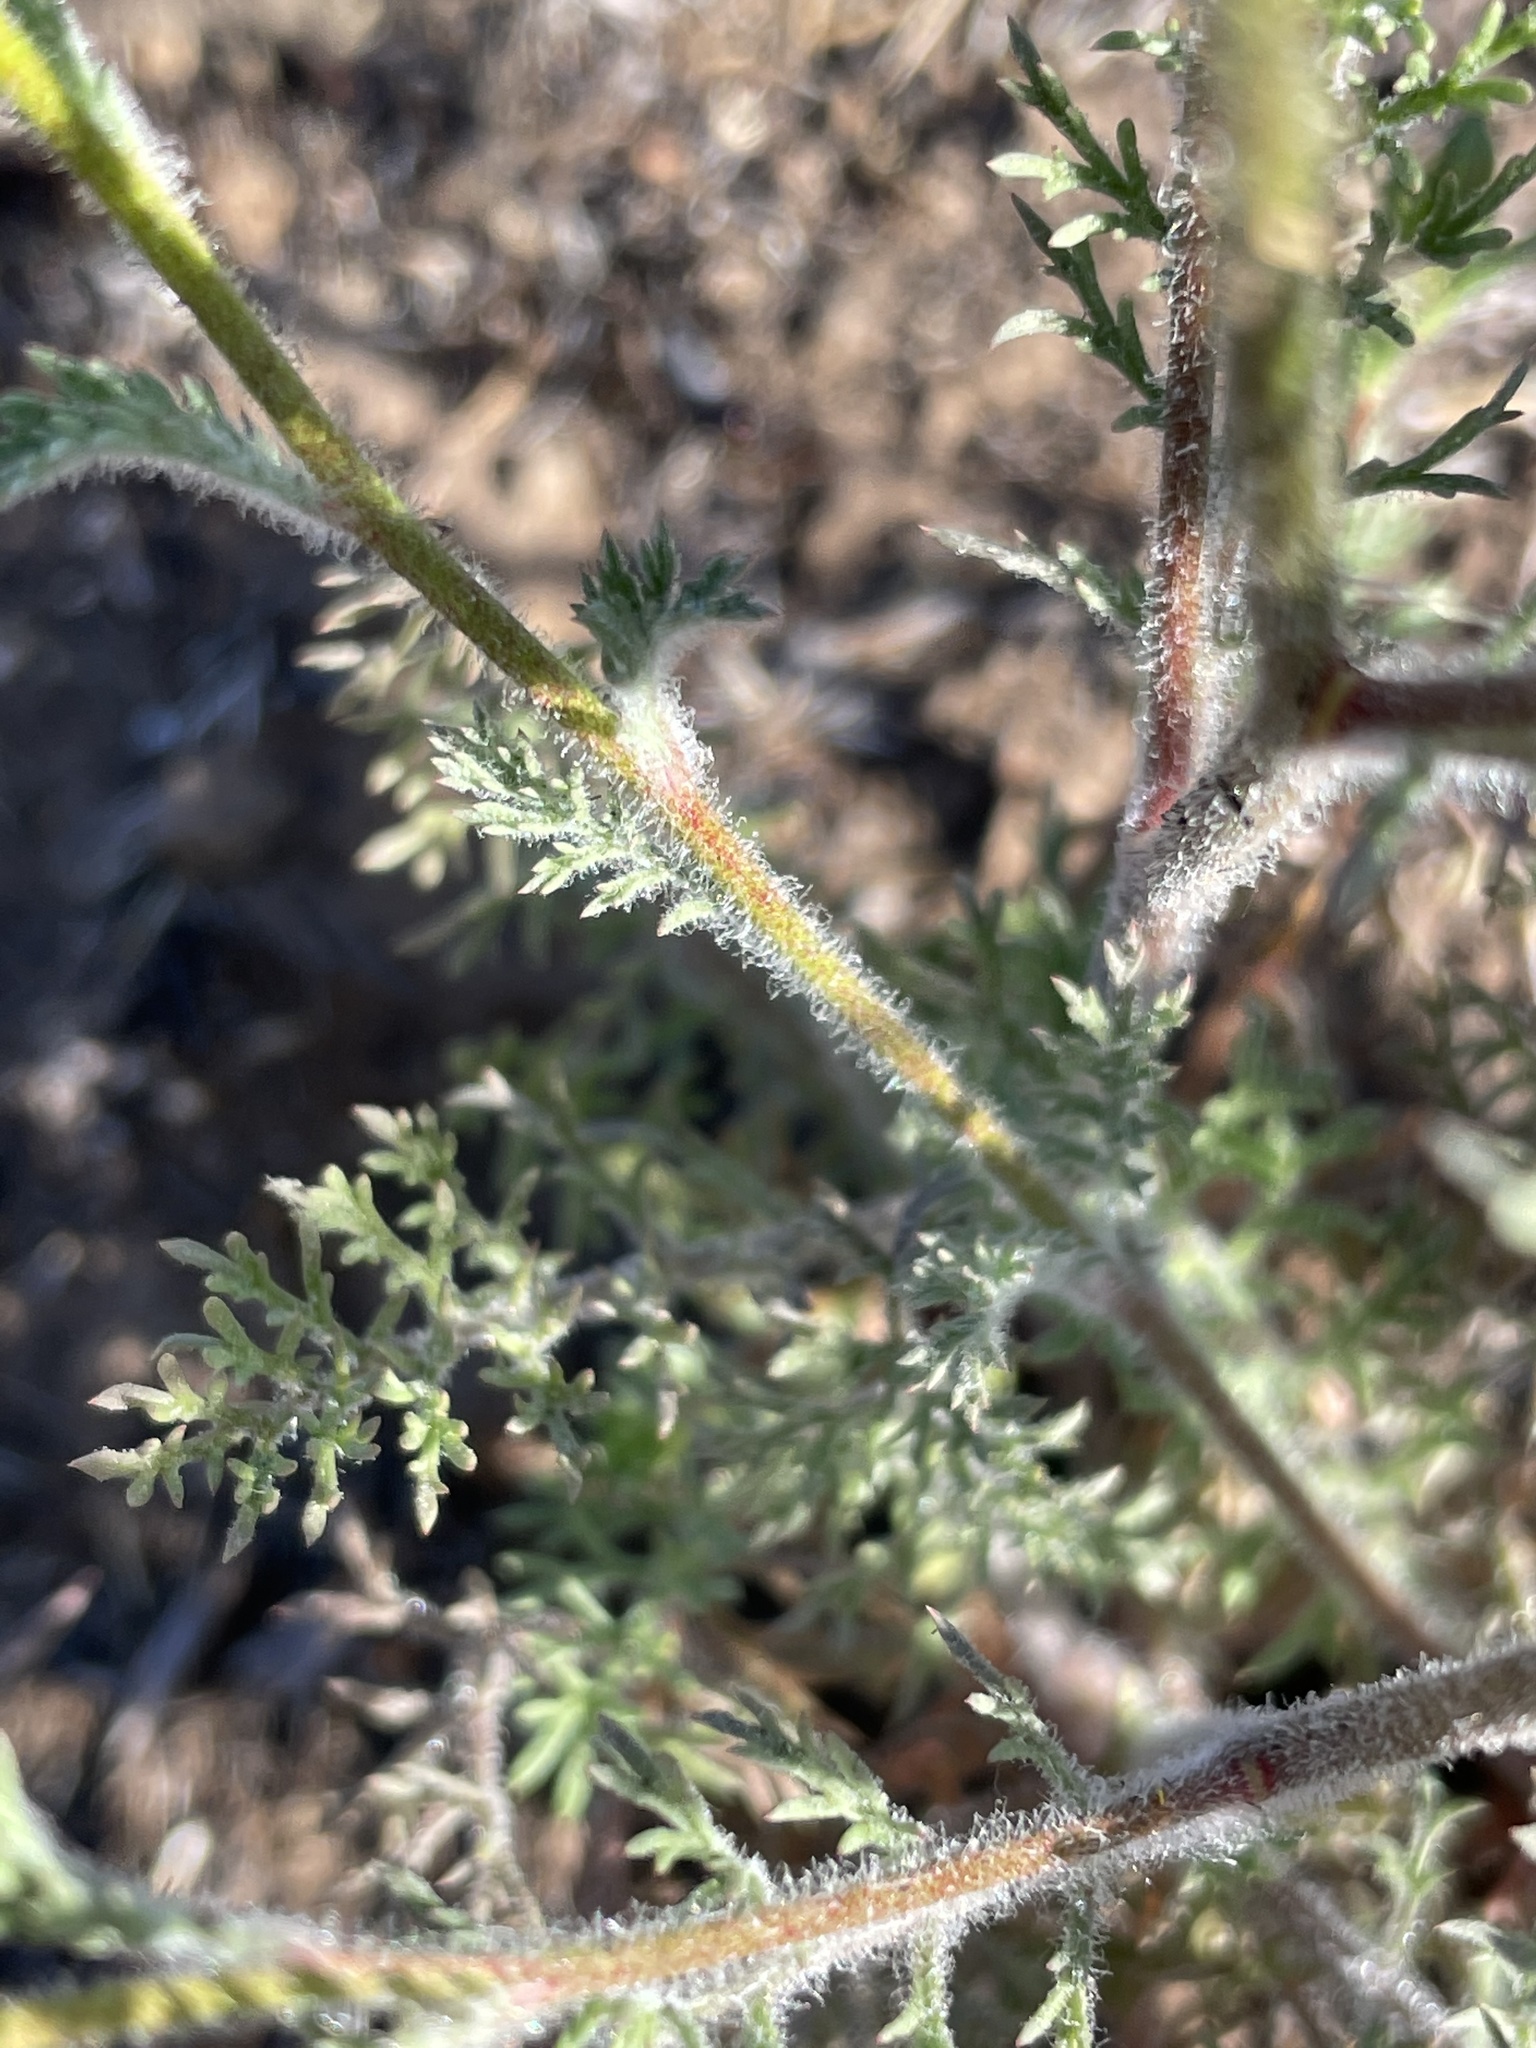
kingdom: Plantae
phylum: Tracheophyta
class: Magnoliopsida
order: Ericales
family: Polemoniaceae
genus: Gilia
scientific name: Gilia nevinii
